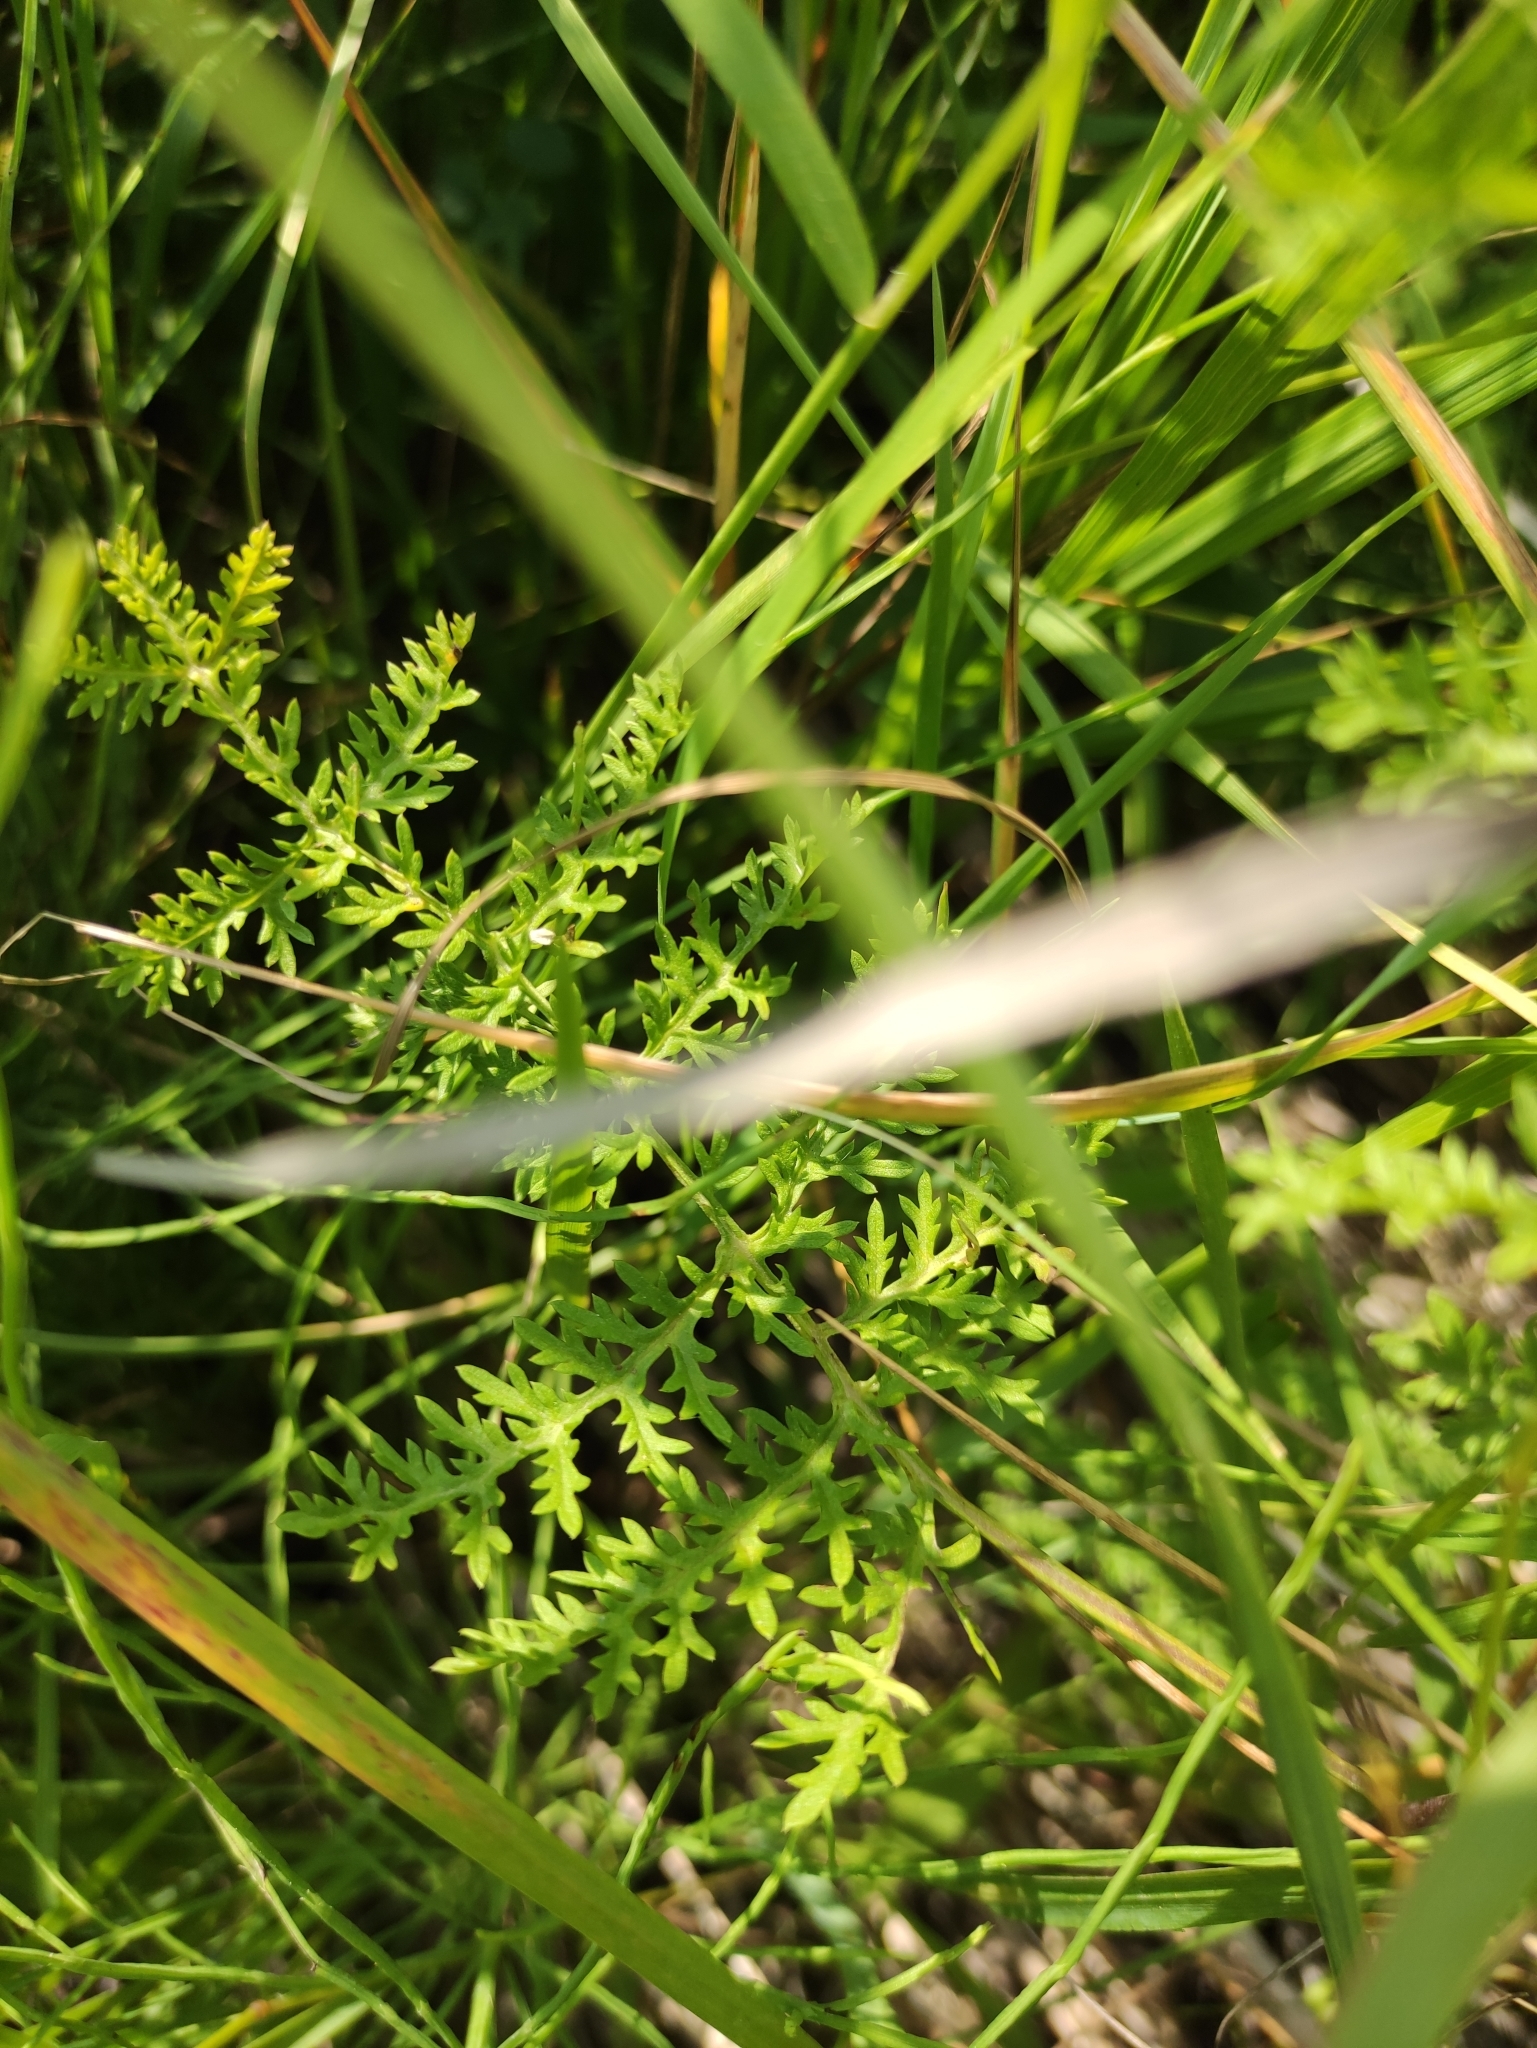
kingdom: Plantae
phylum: Tracheophyta
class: Magnoliopsida
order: Asterales
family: Asteraceae
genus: Artemisia
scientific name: Artemisia tanacetifolia
